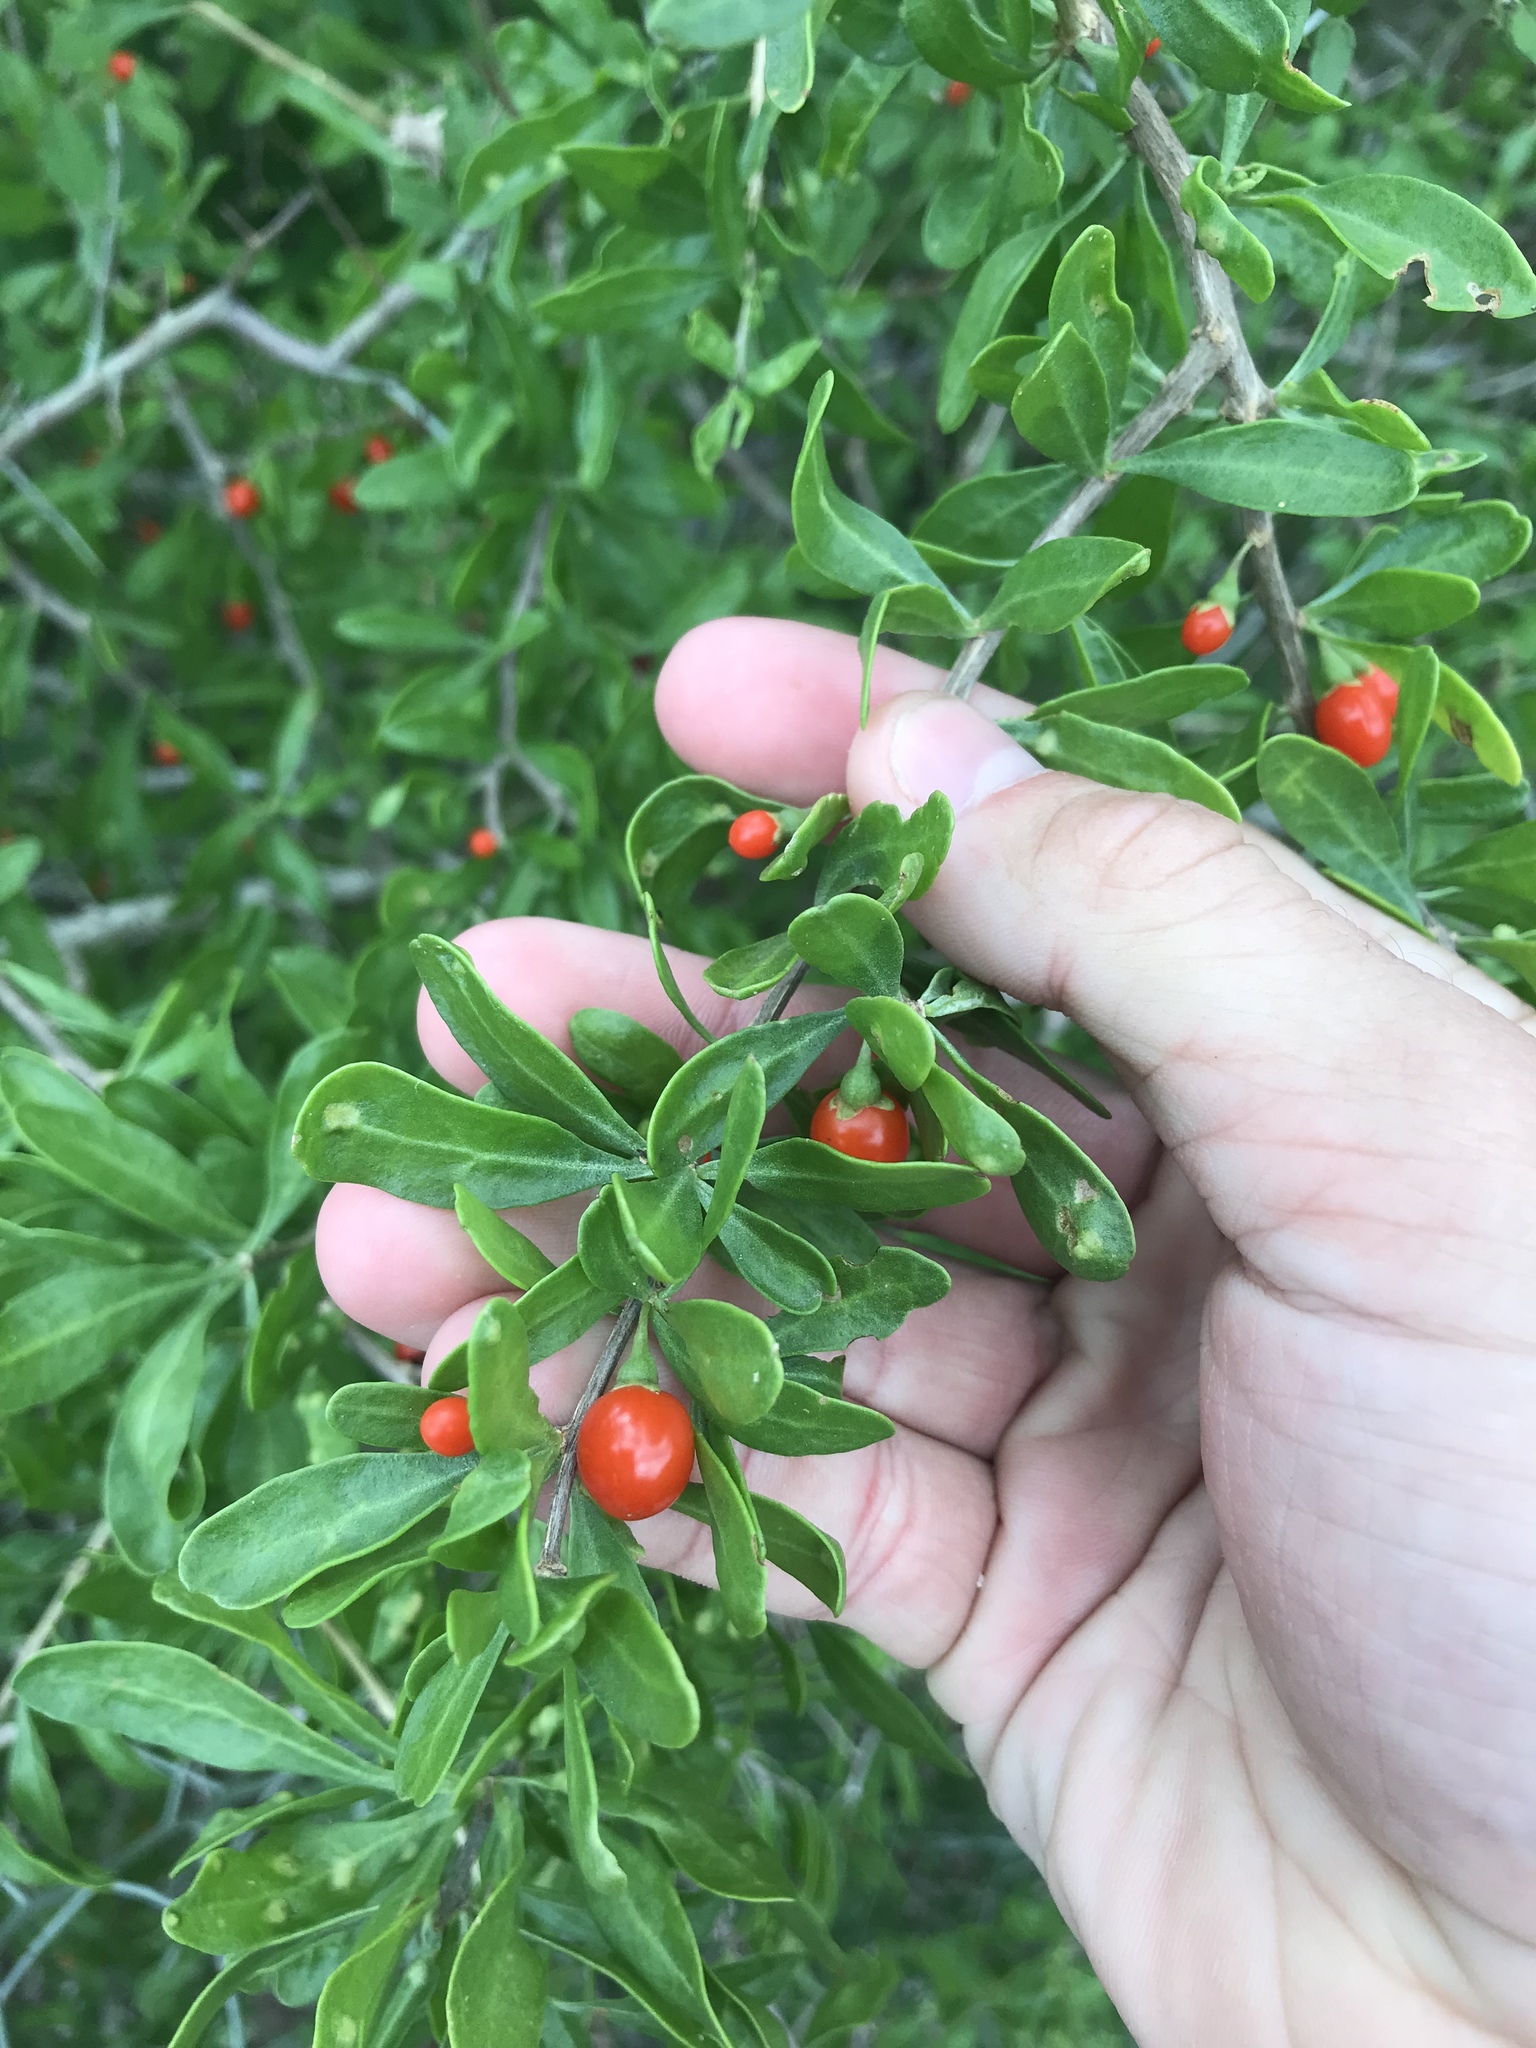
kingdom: Plantae
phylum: Tracheophyta
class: Magnoliopsida
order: Solanales
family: Solanaceae
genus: Lycium
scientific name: Lycium berlandieri
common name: Berlandier wolfberry
